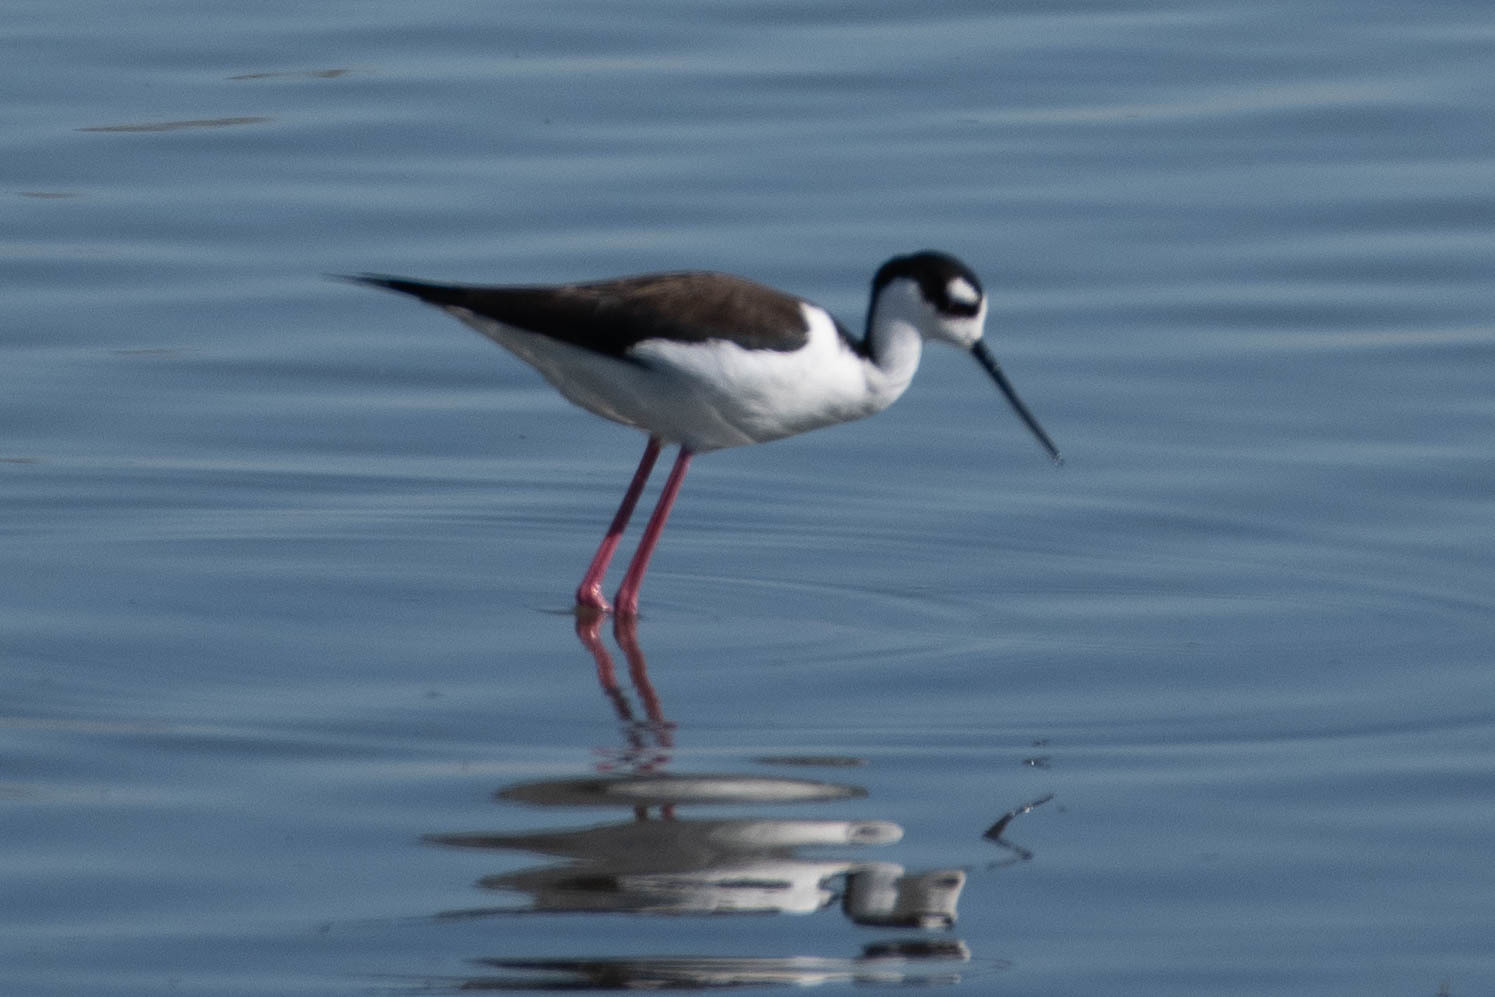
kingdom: Animalia
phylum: Chordata
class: Aves
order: Charadriiformes
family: Recurvirostridae
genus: Himantopus
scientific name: Himantopus mexicanus
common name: Black-necked stilt
